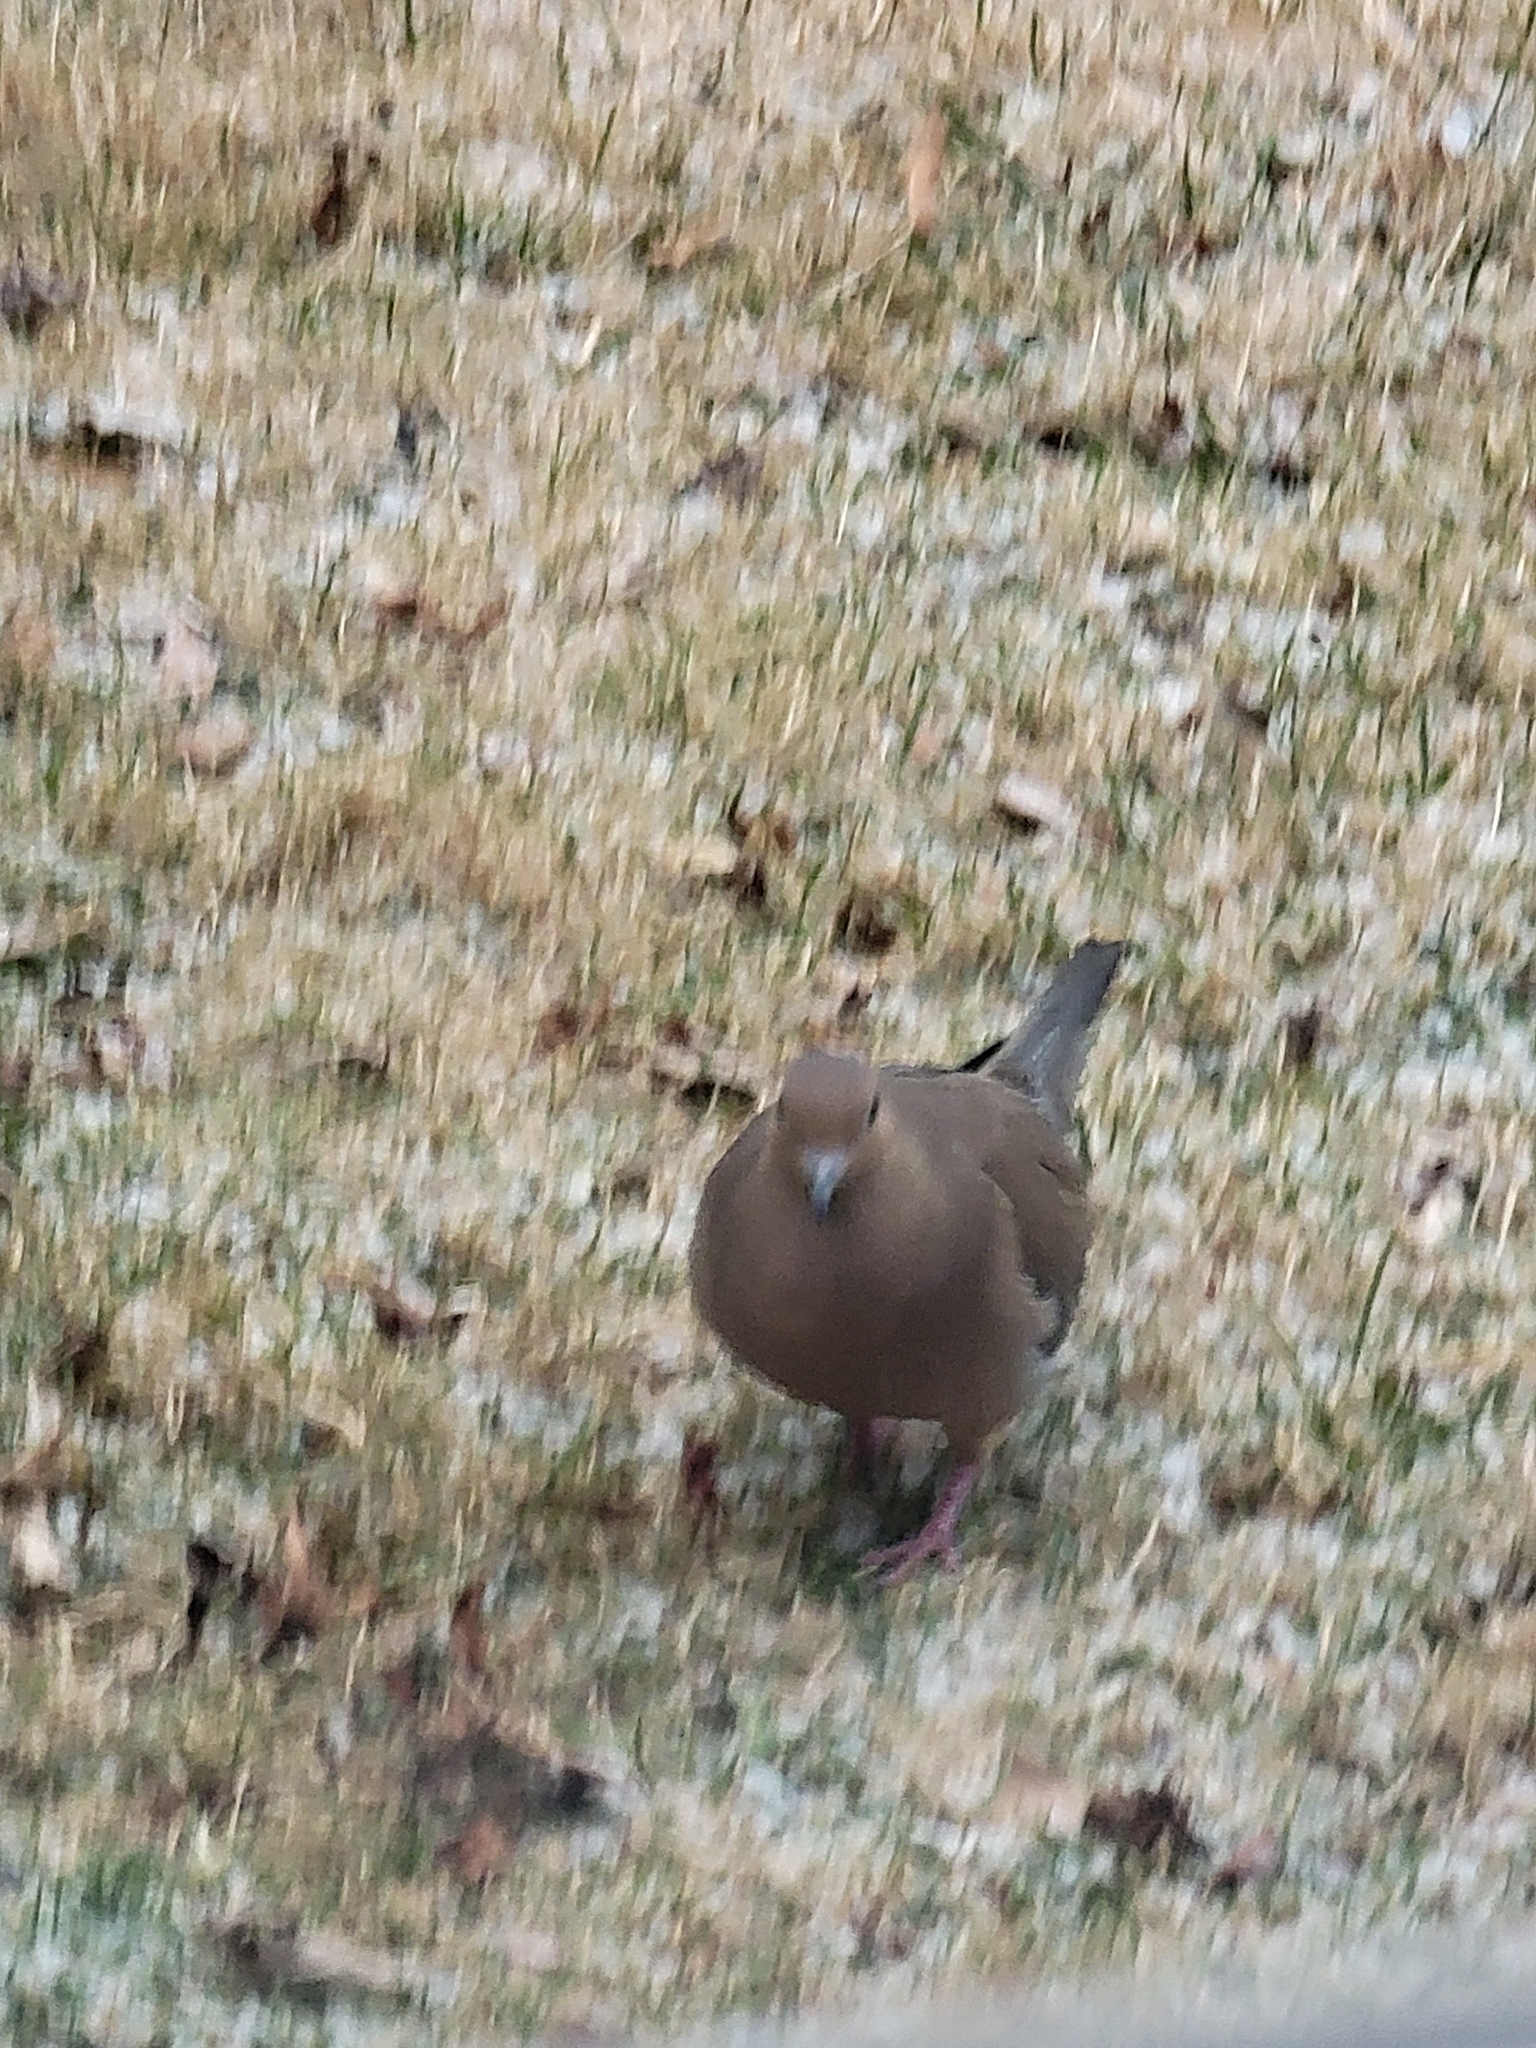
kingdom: Animalia
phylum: Chordata
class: Aves
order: Columbiformes
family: Columbidae
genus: Zenaida
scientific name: Zenaida macroura
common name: Mourning dove
